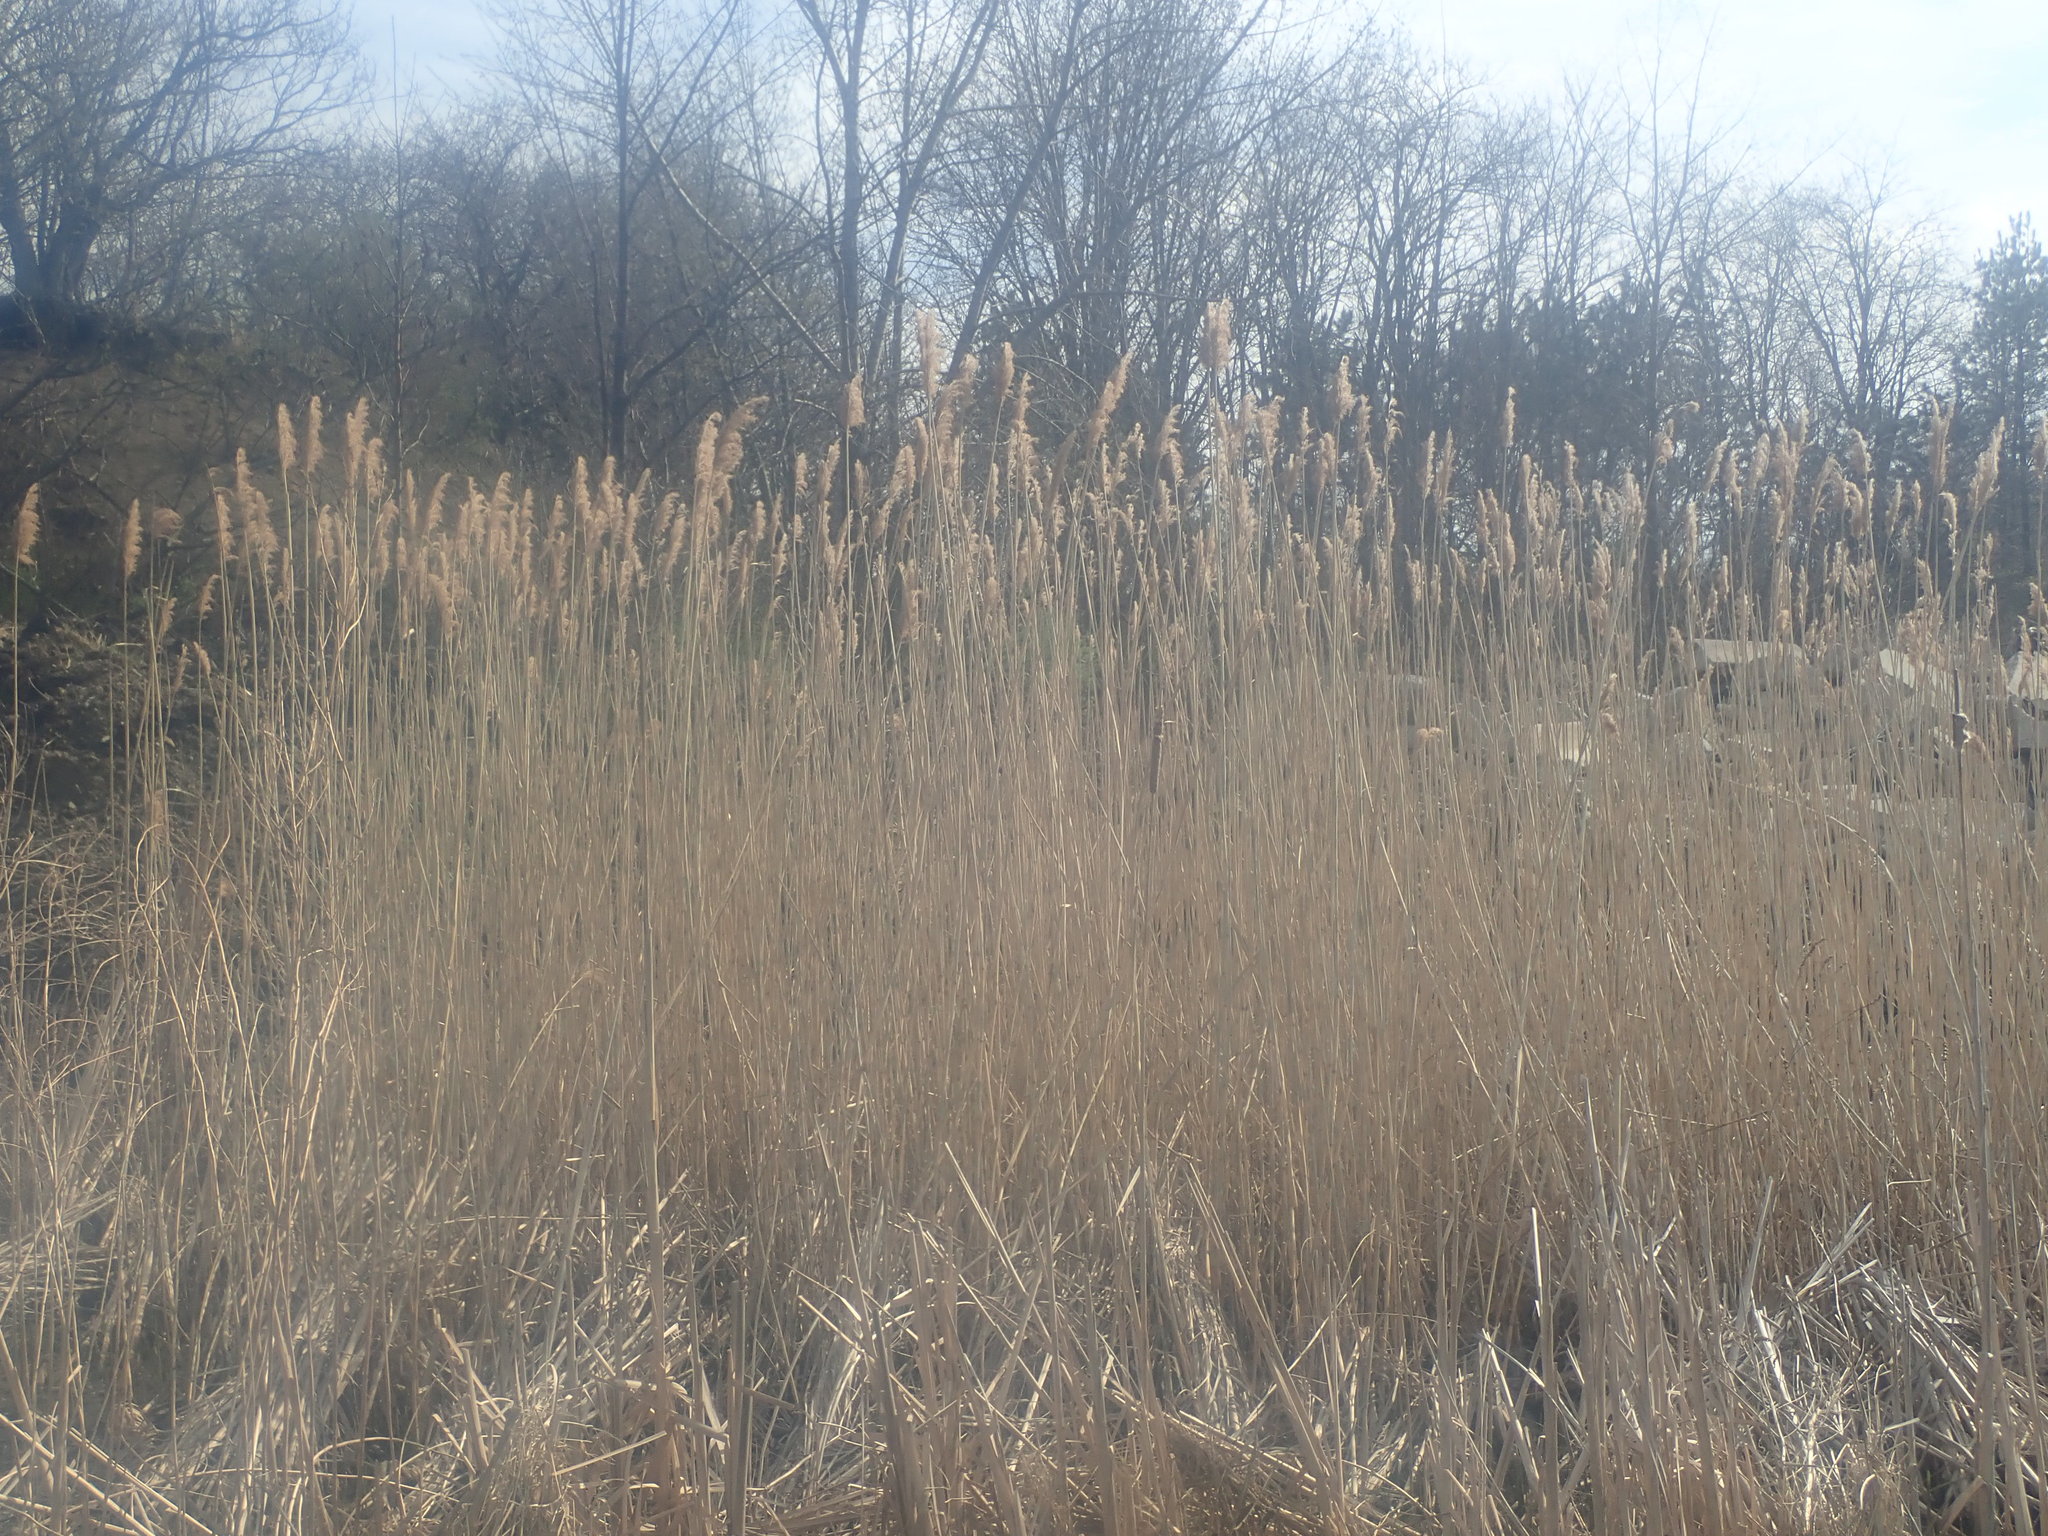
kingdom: Plantae
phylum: Tracheophyta
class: Liliopsida
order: Poales
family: Poaceae
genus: Phragmites
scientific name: Phragmites australis
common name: Common reed
